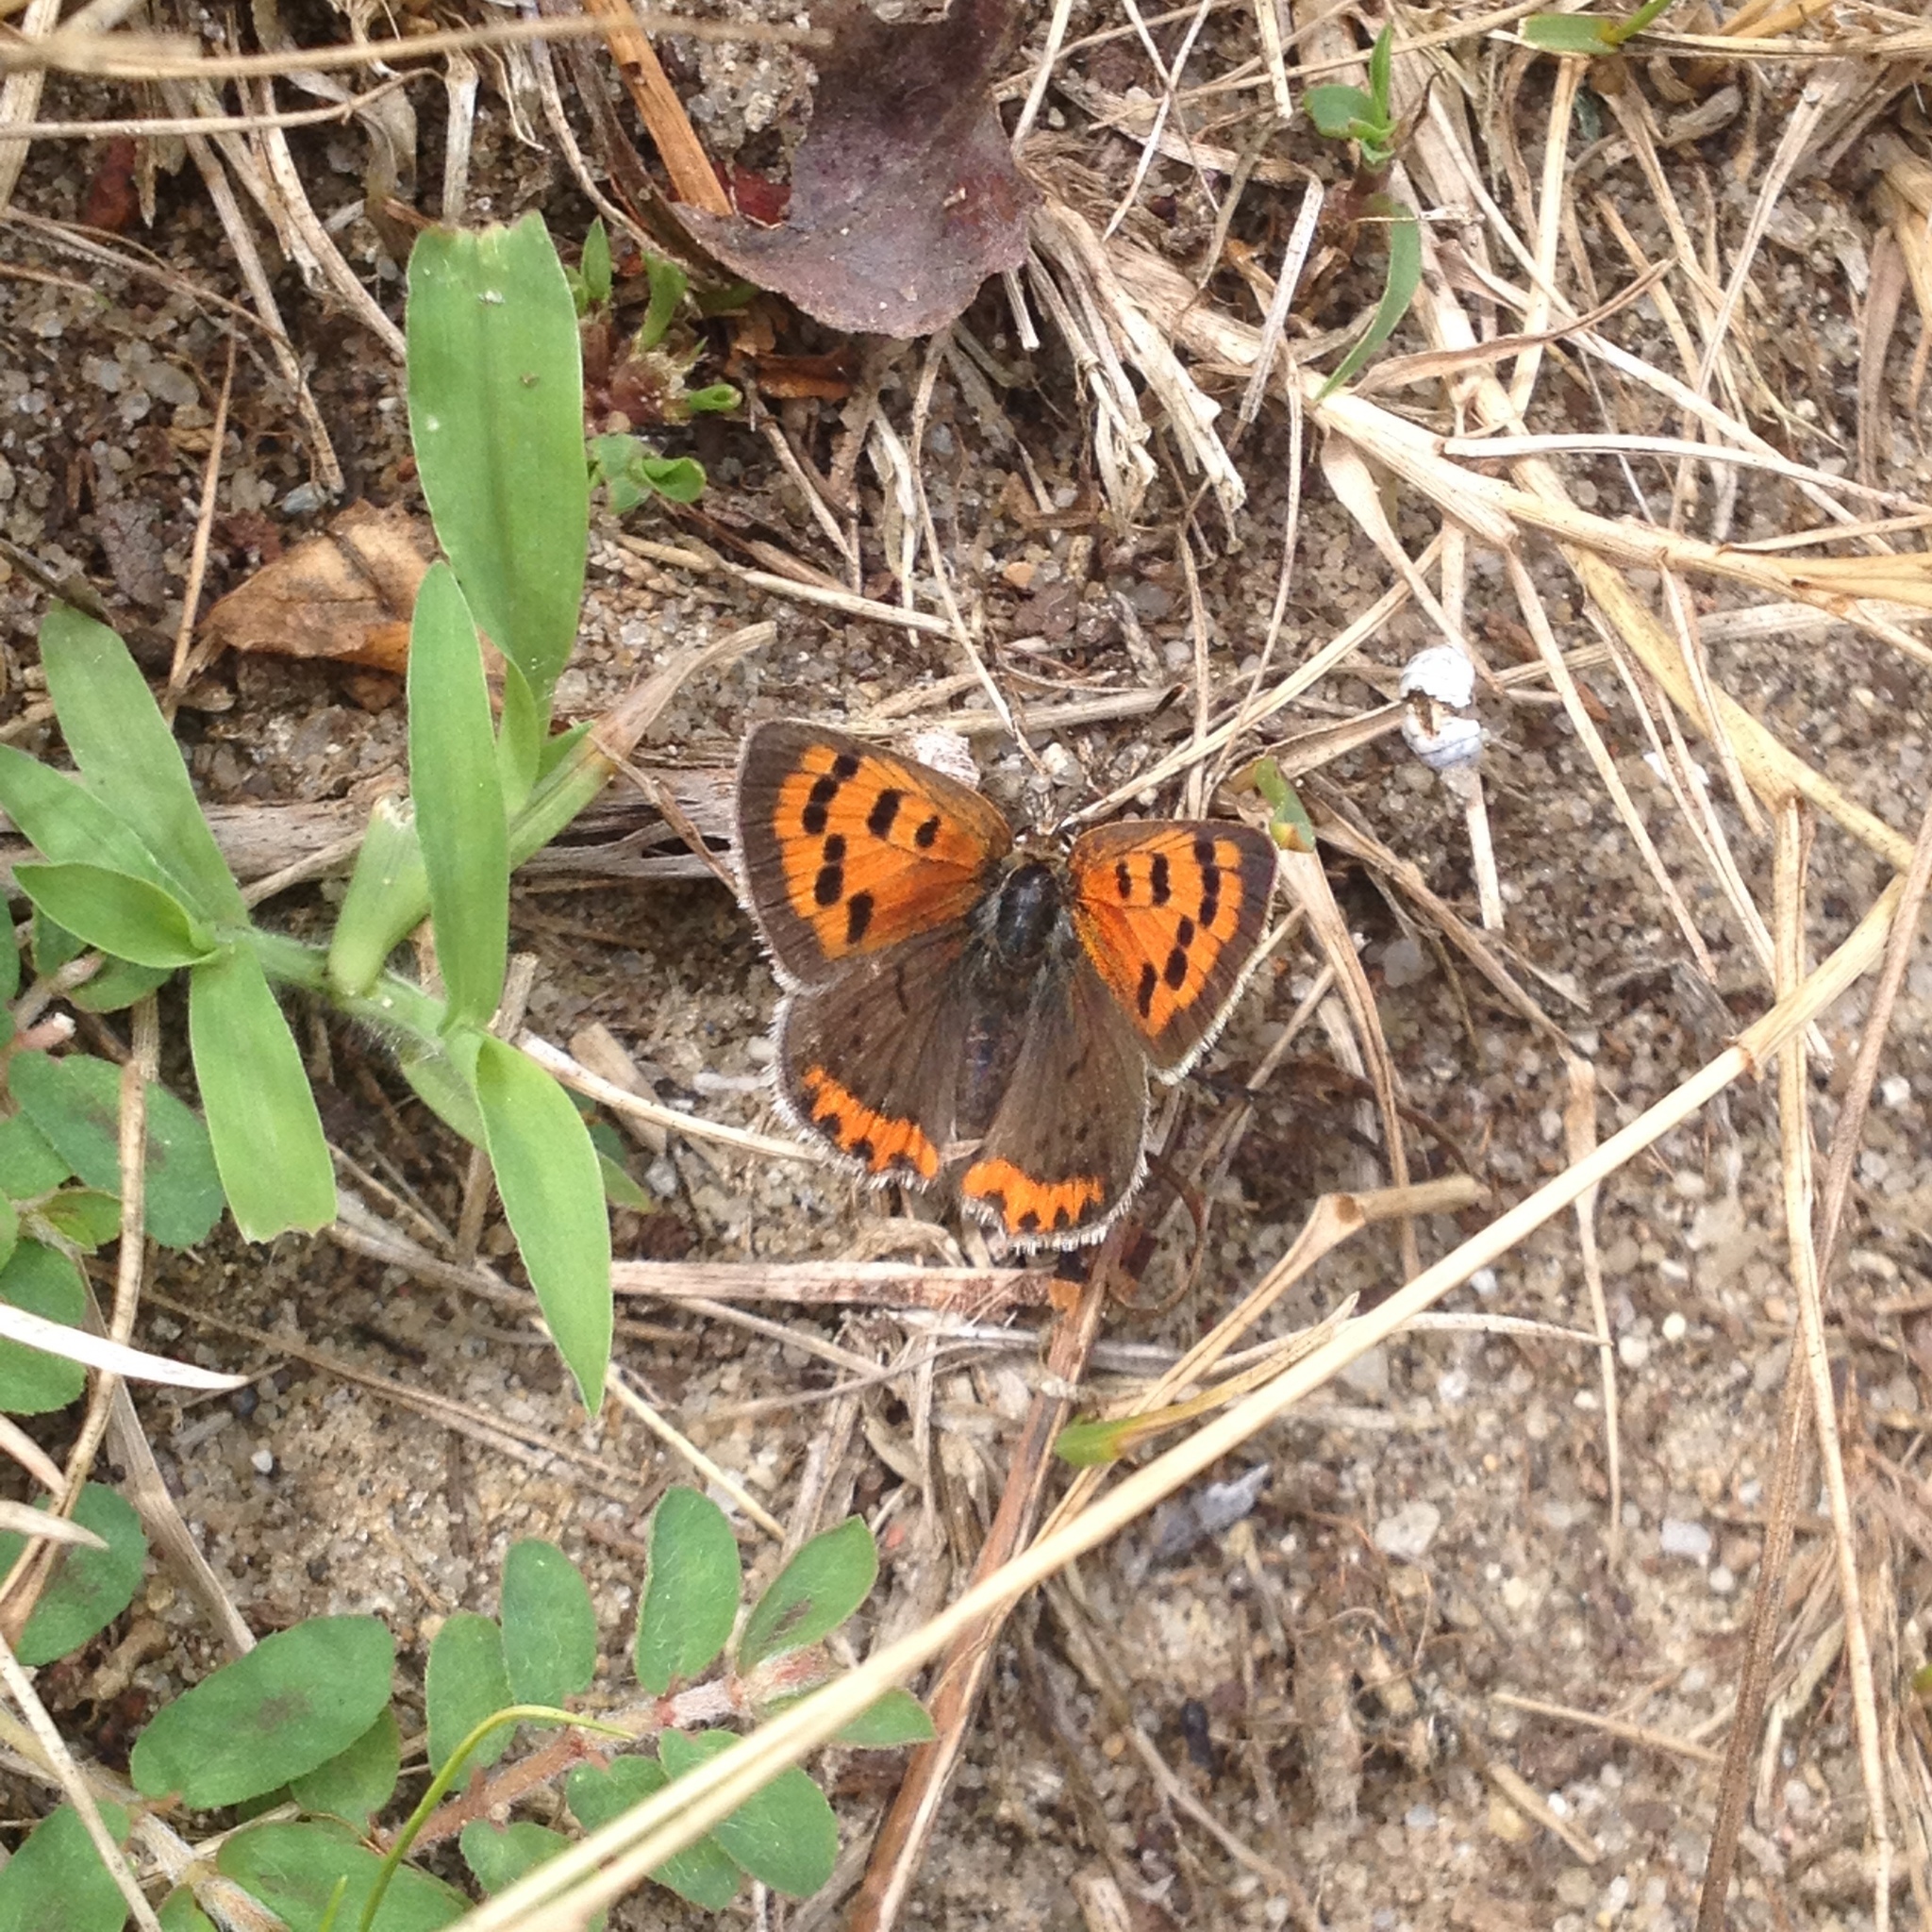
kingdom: Animalia
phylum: Arthropoda
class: Insecta
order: Lepidoptera
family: Lycaenidae
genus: Lycaena
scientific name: Lycaena hypophlaeas
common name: American copper
